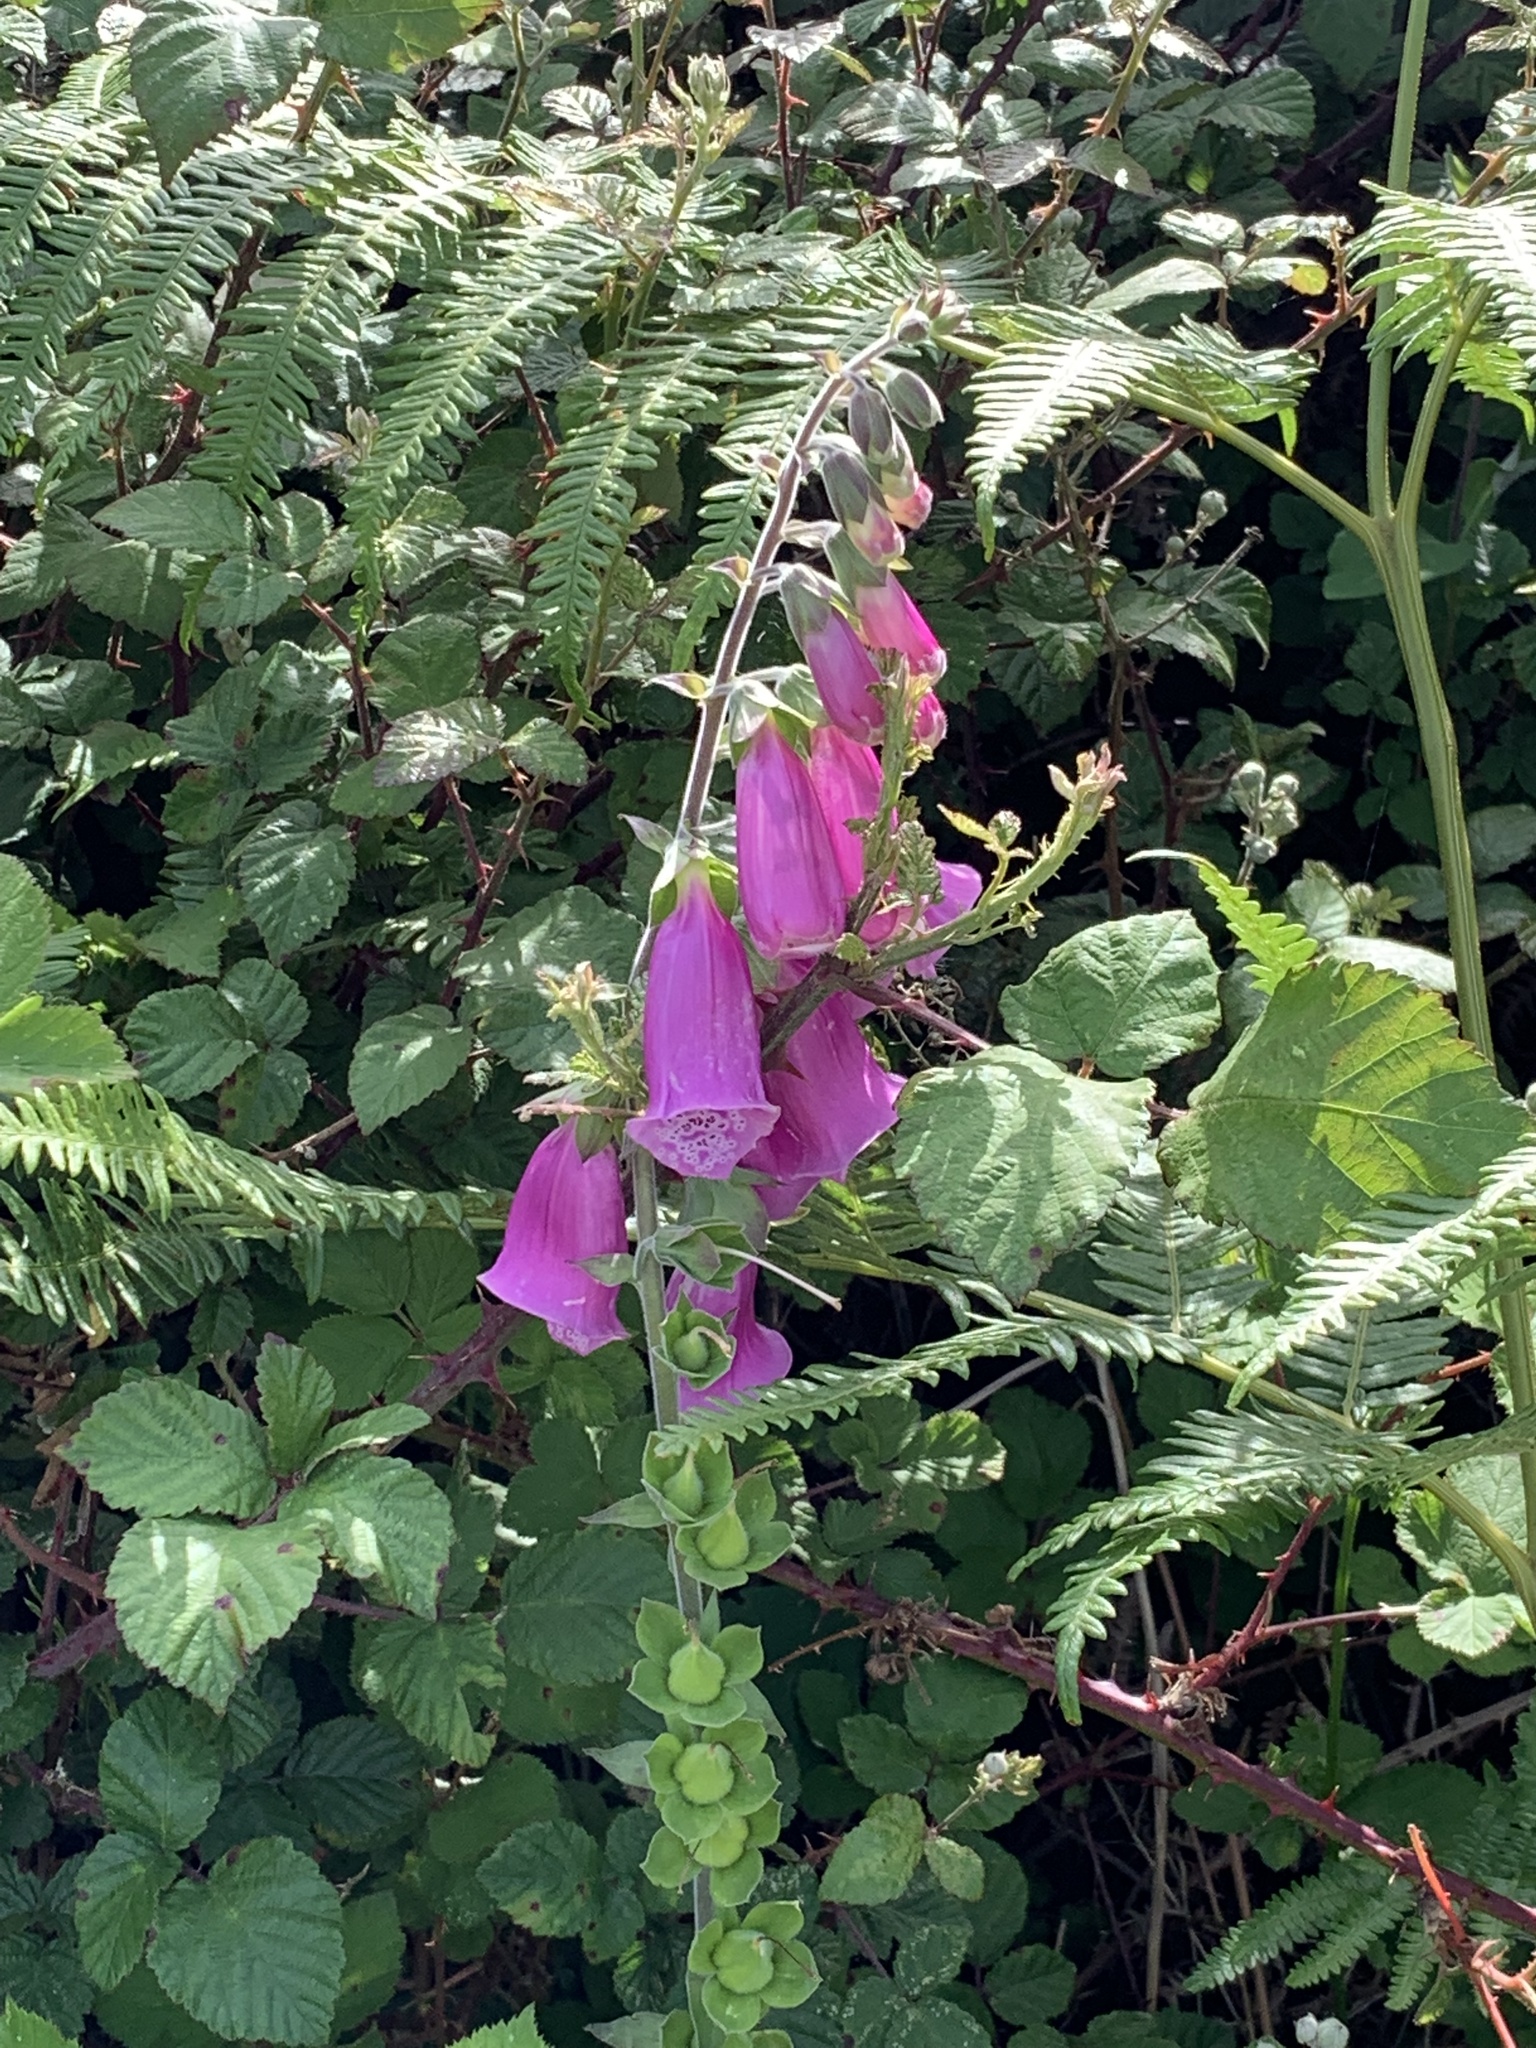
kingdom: Plantae
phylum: Tracheophyta
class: Magnoliopsida
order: Lamiales
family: Plantaginaceae
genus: Digitalis
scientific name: Digitalis purpurea
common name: Foxglove
